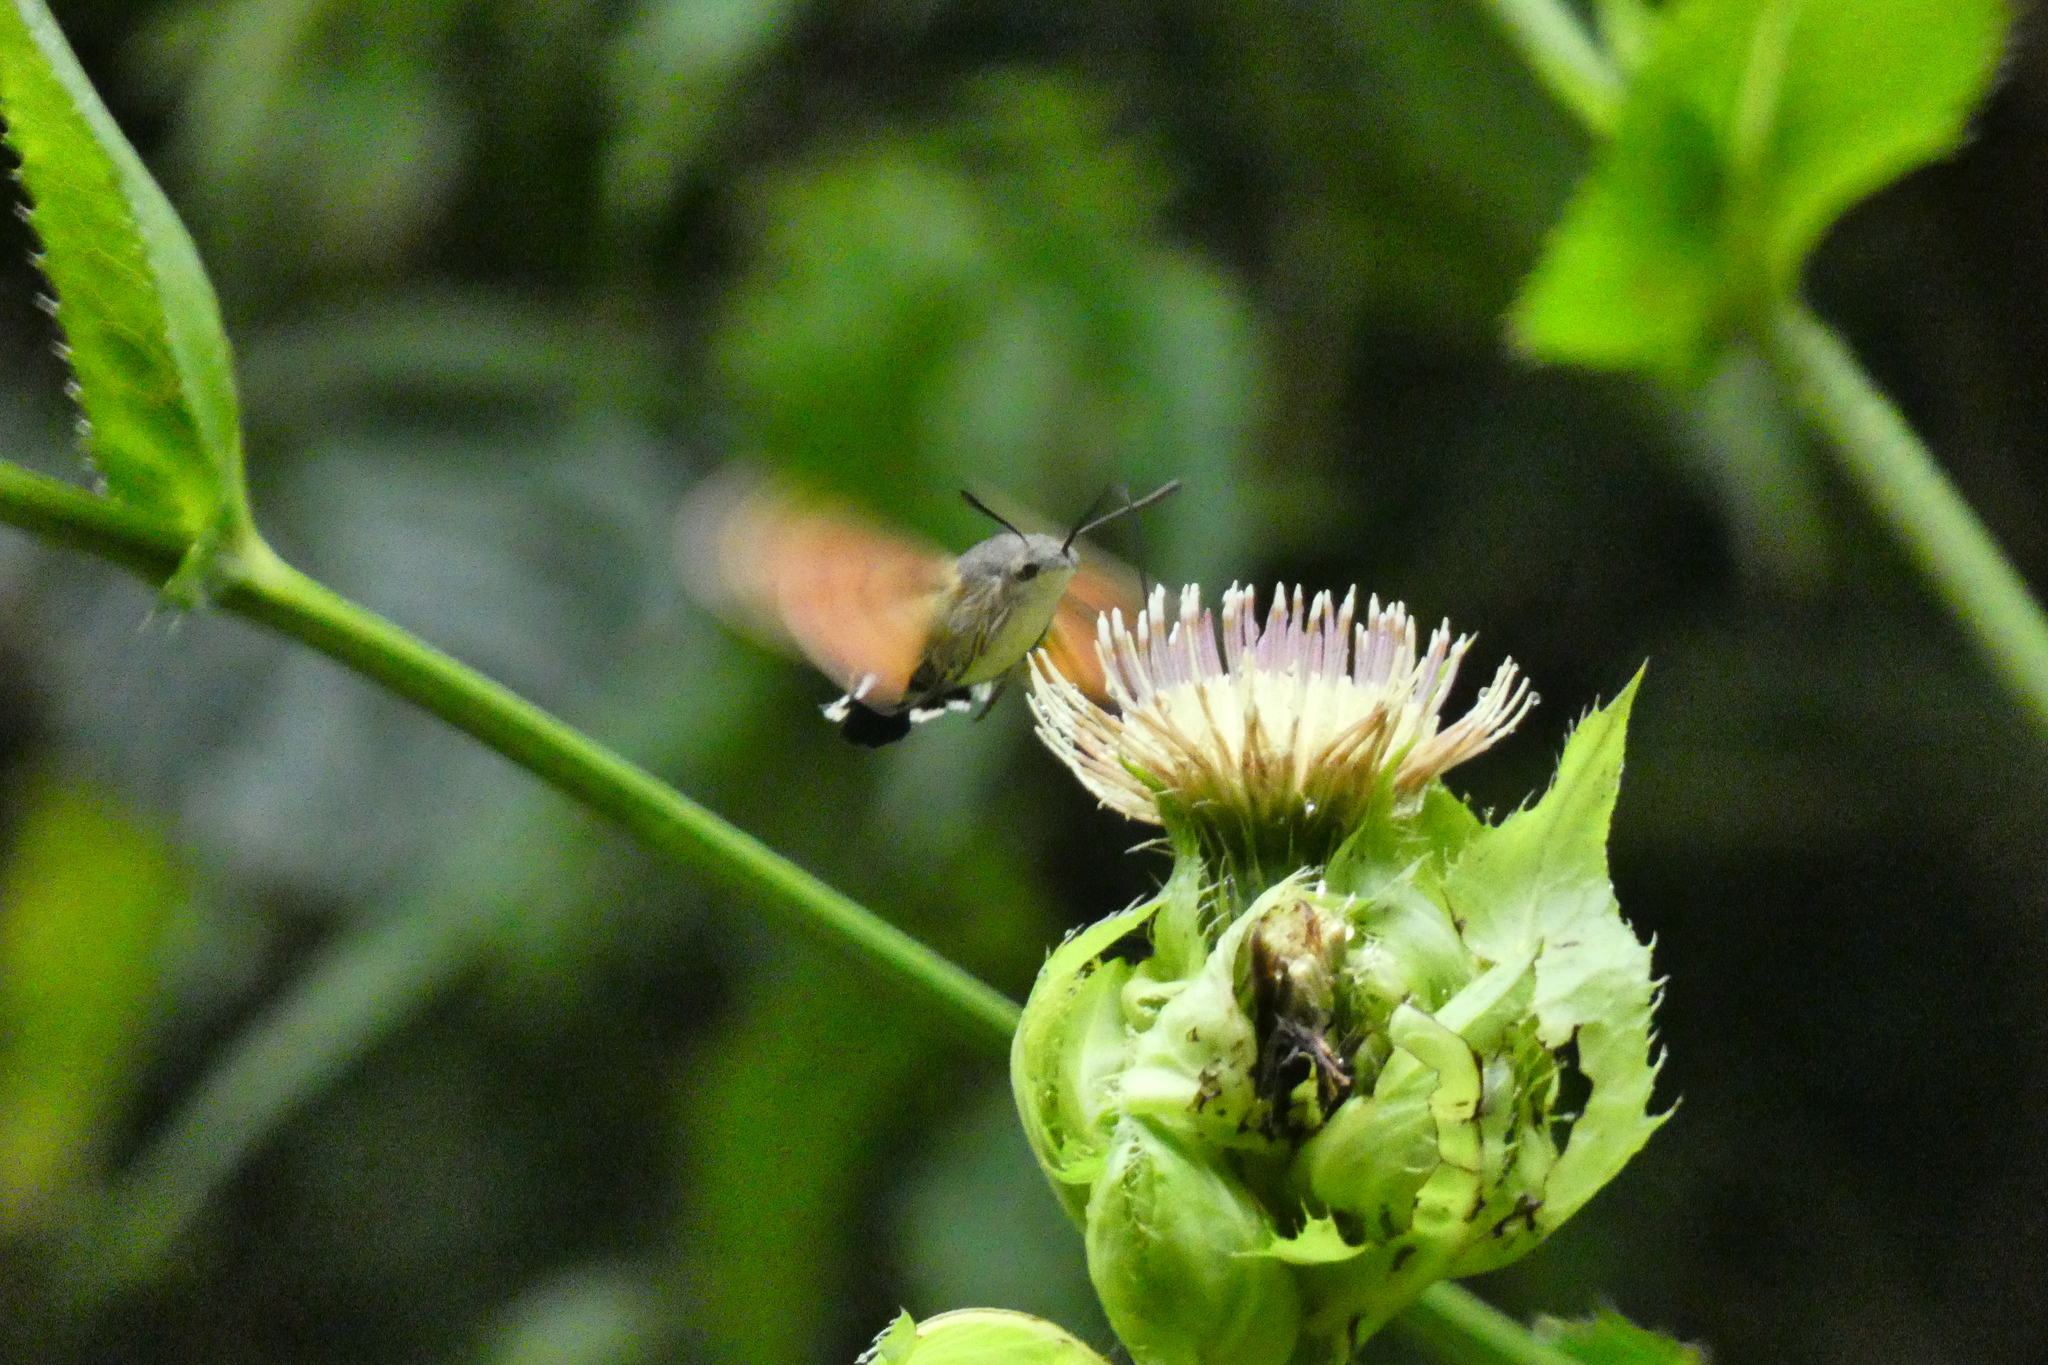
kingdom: Animalia
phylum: Arthropoda
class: Insecta
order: Lepidoptera
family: Sphingidae
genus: Macroglossum
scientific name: Macroglossum stellatarum
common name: Humming-bird hawk-moth
